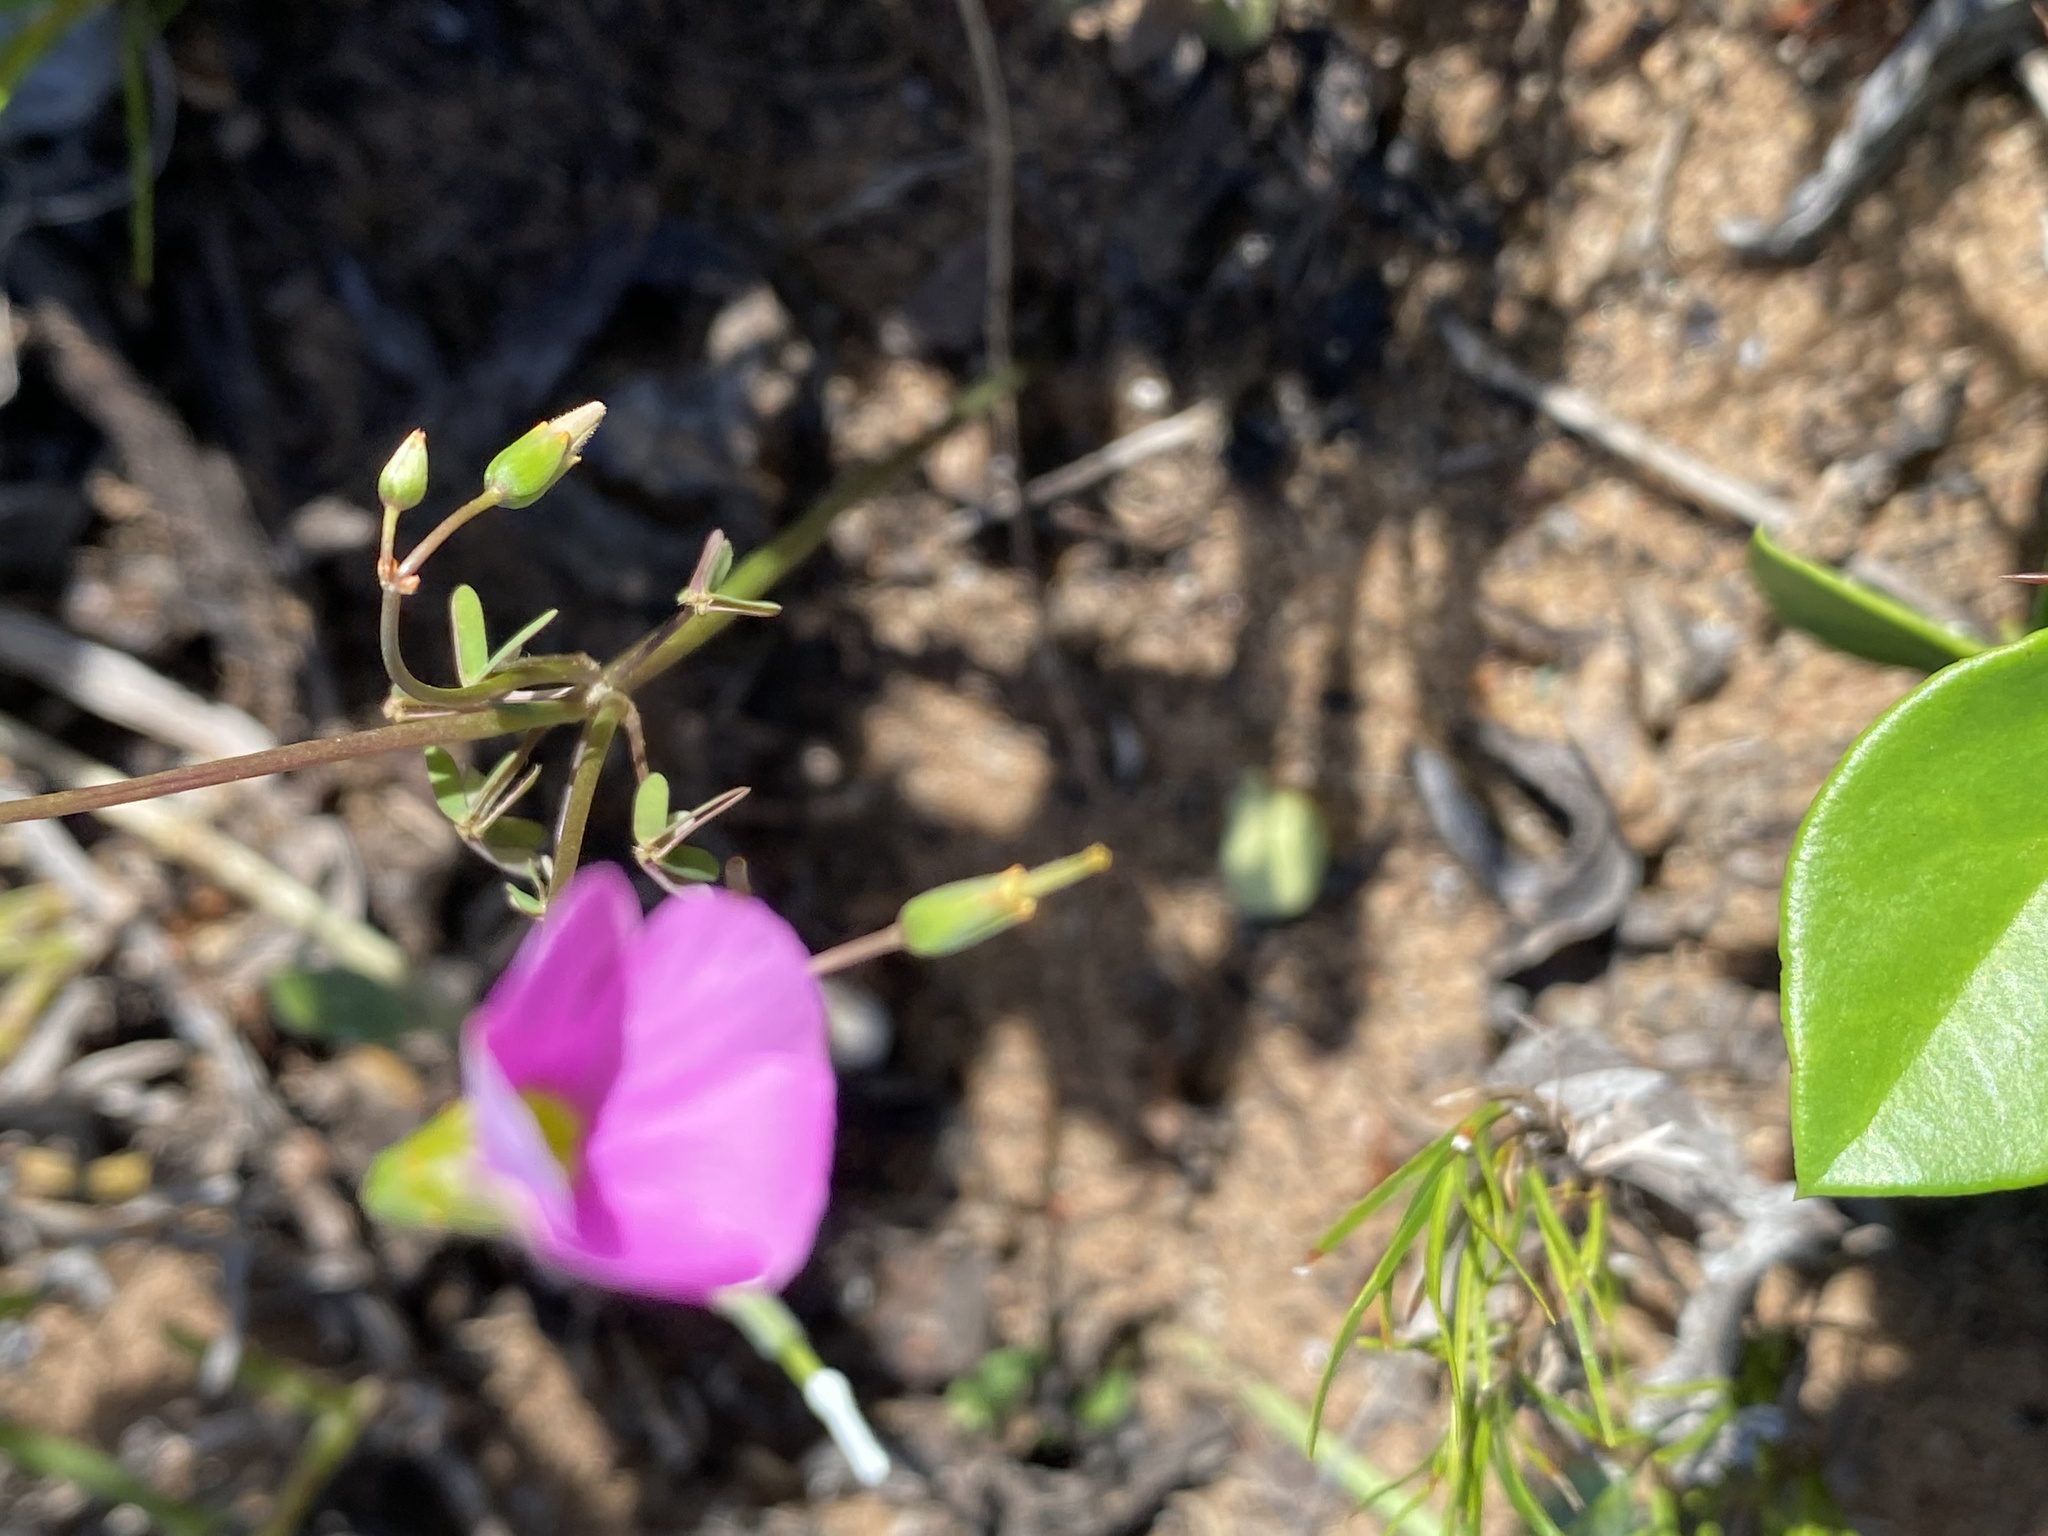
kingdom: Plantae
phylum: Tracheophyta
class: Magnoliopsida
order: Oxalidales
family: Oxalidaceae
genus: Oxalis
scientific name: Oxalis stellata
